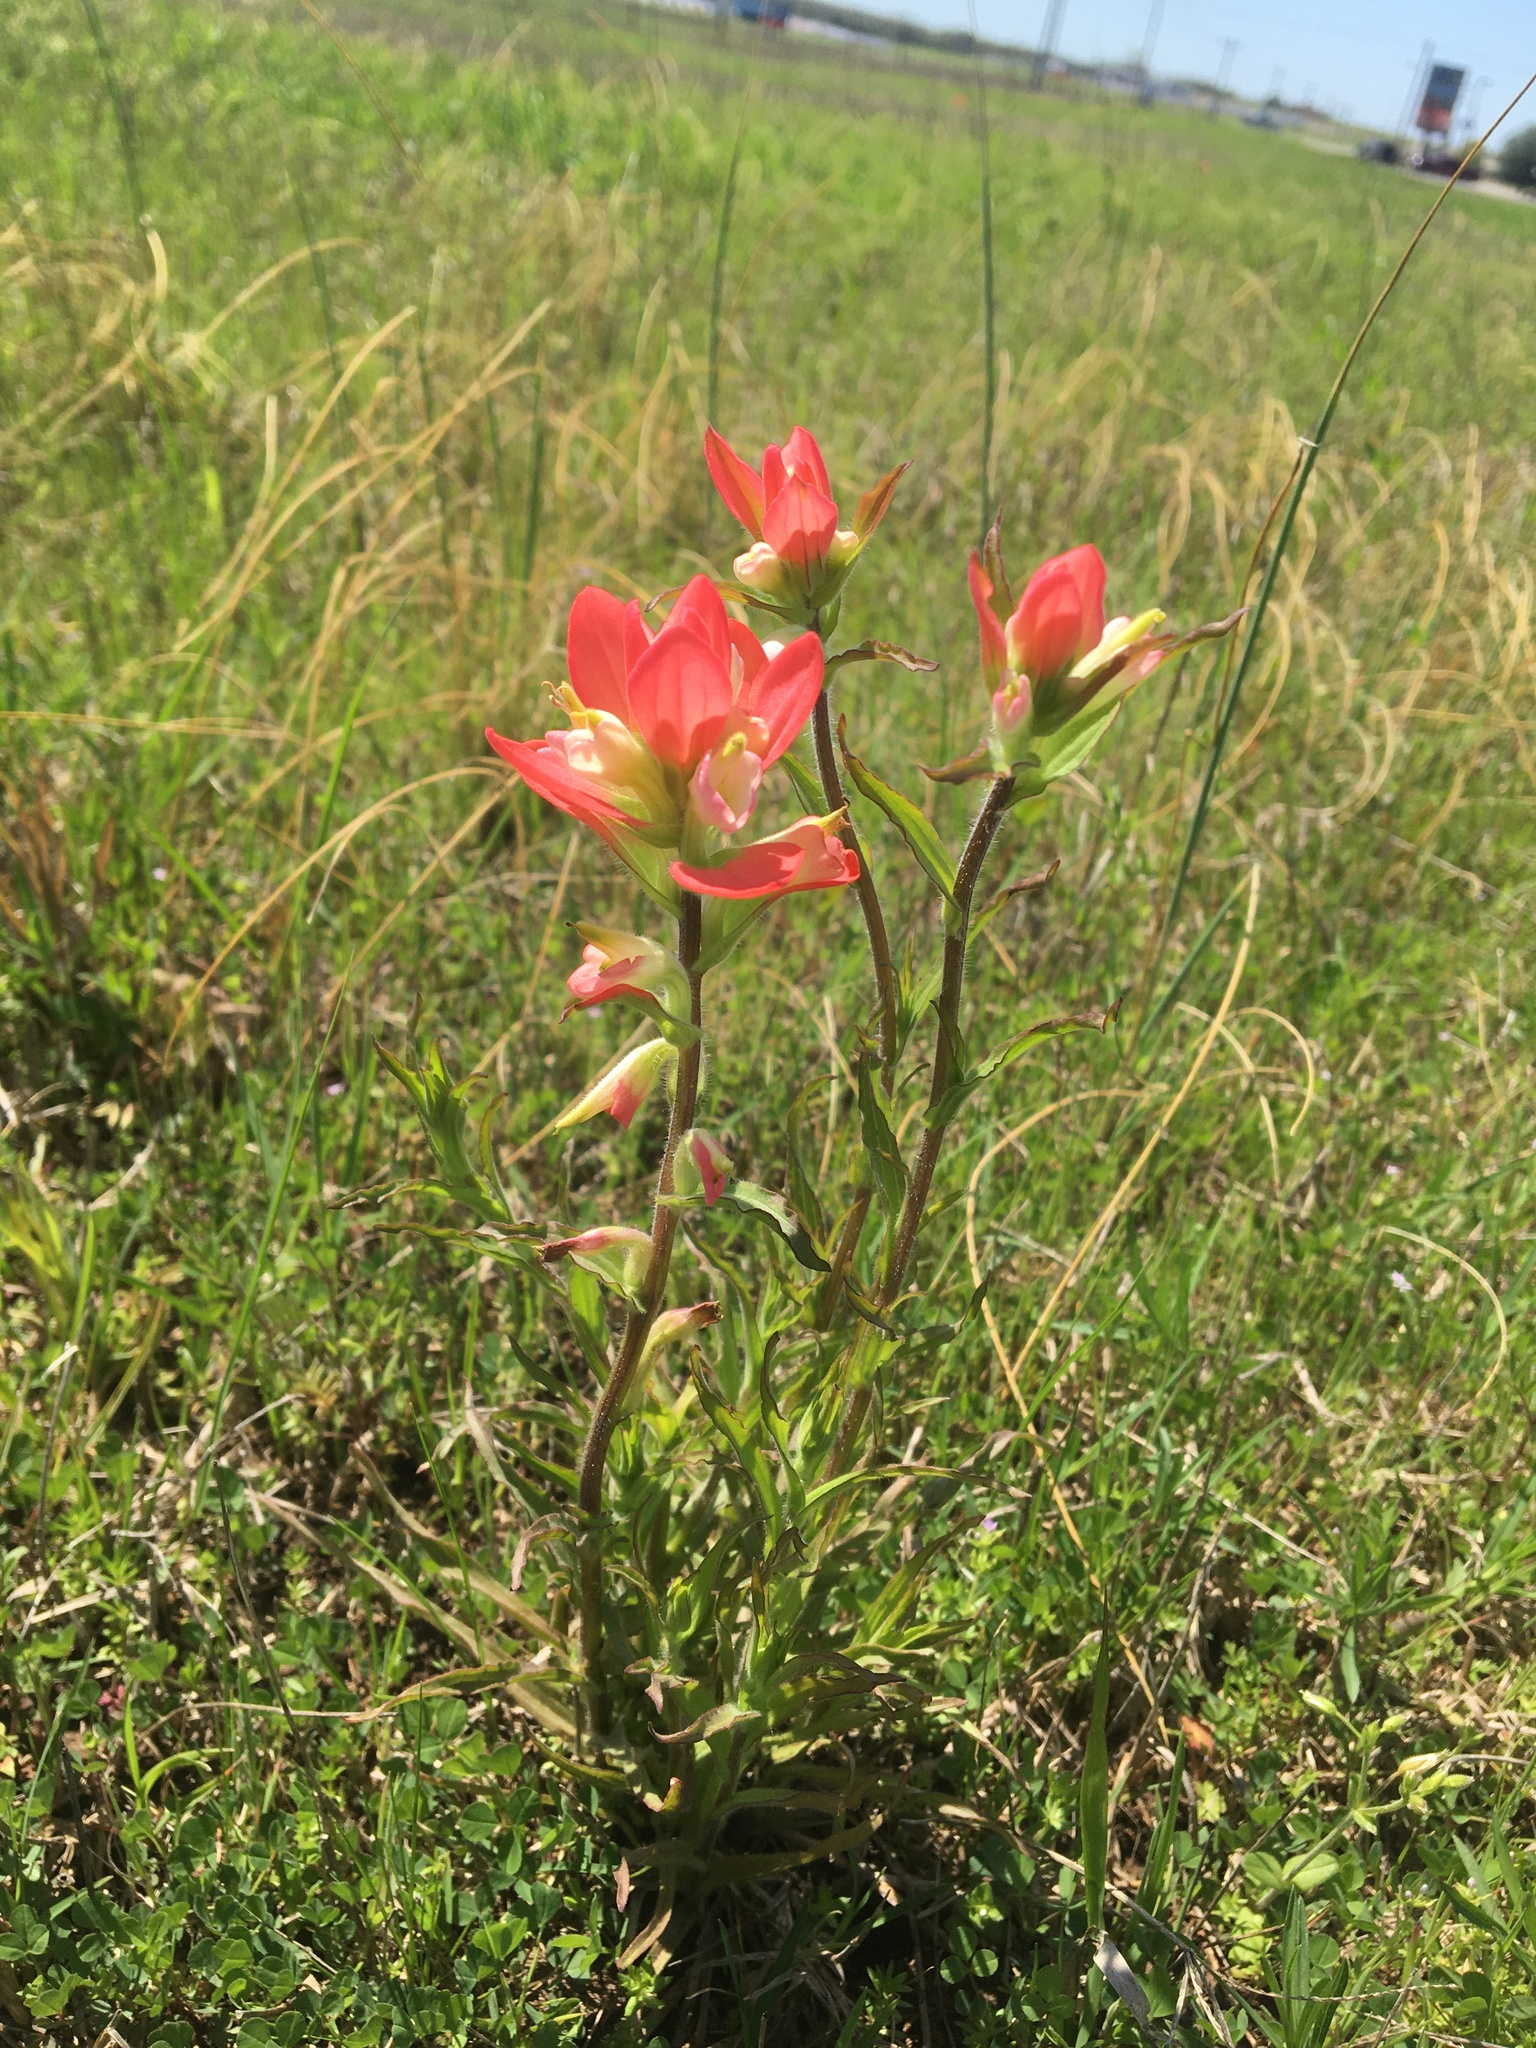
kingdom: Plantae
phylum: Tracheophyta
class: Magnoliopsida
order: Lamiales
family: Orobanchaceae
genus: Castilleja
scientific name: Castilleja indivisa
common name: Texas paintbrush
